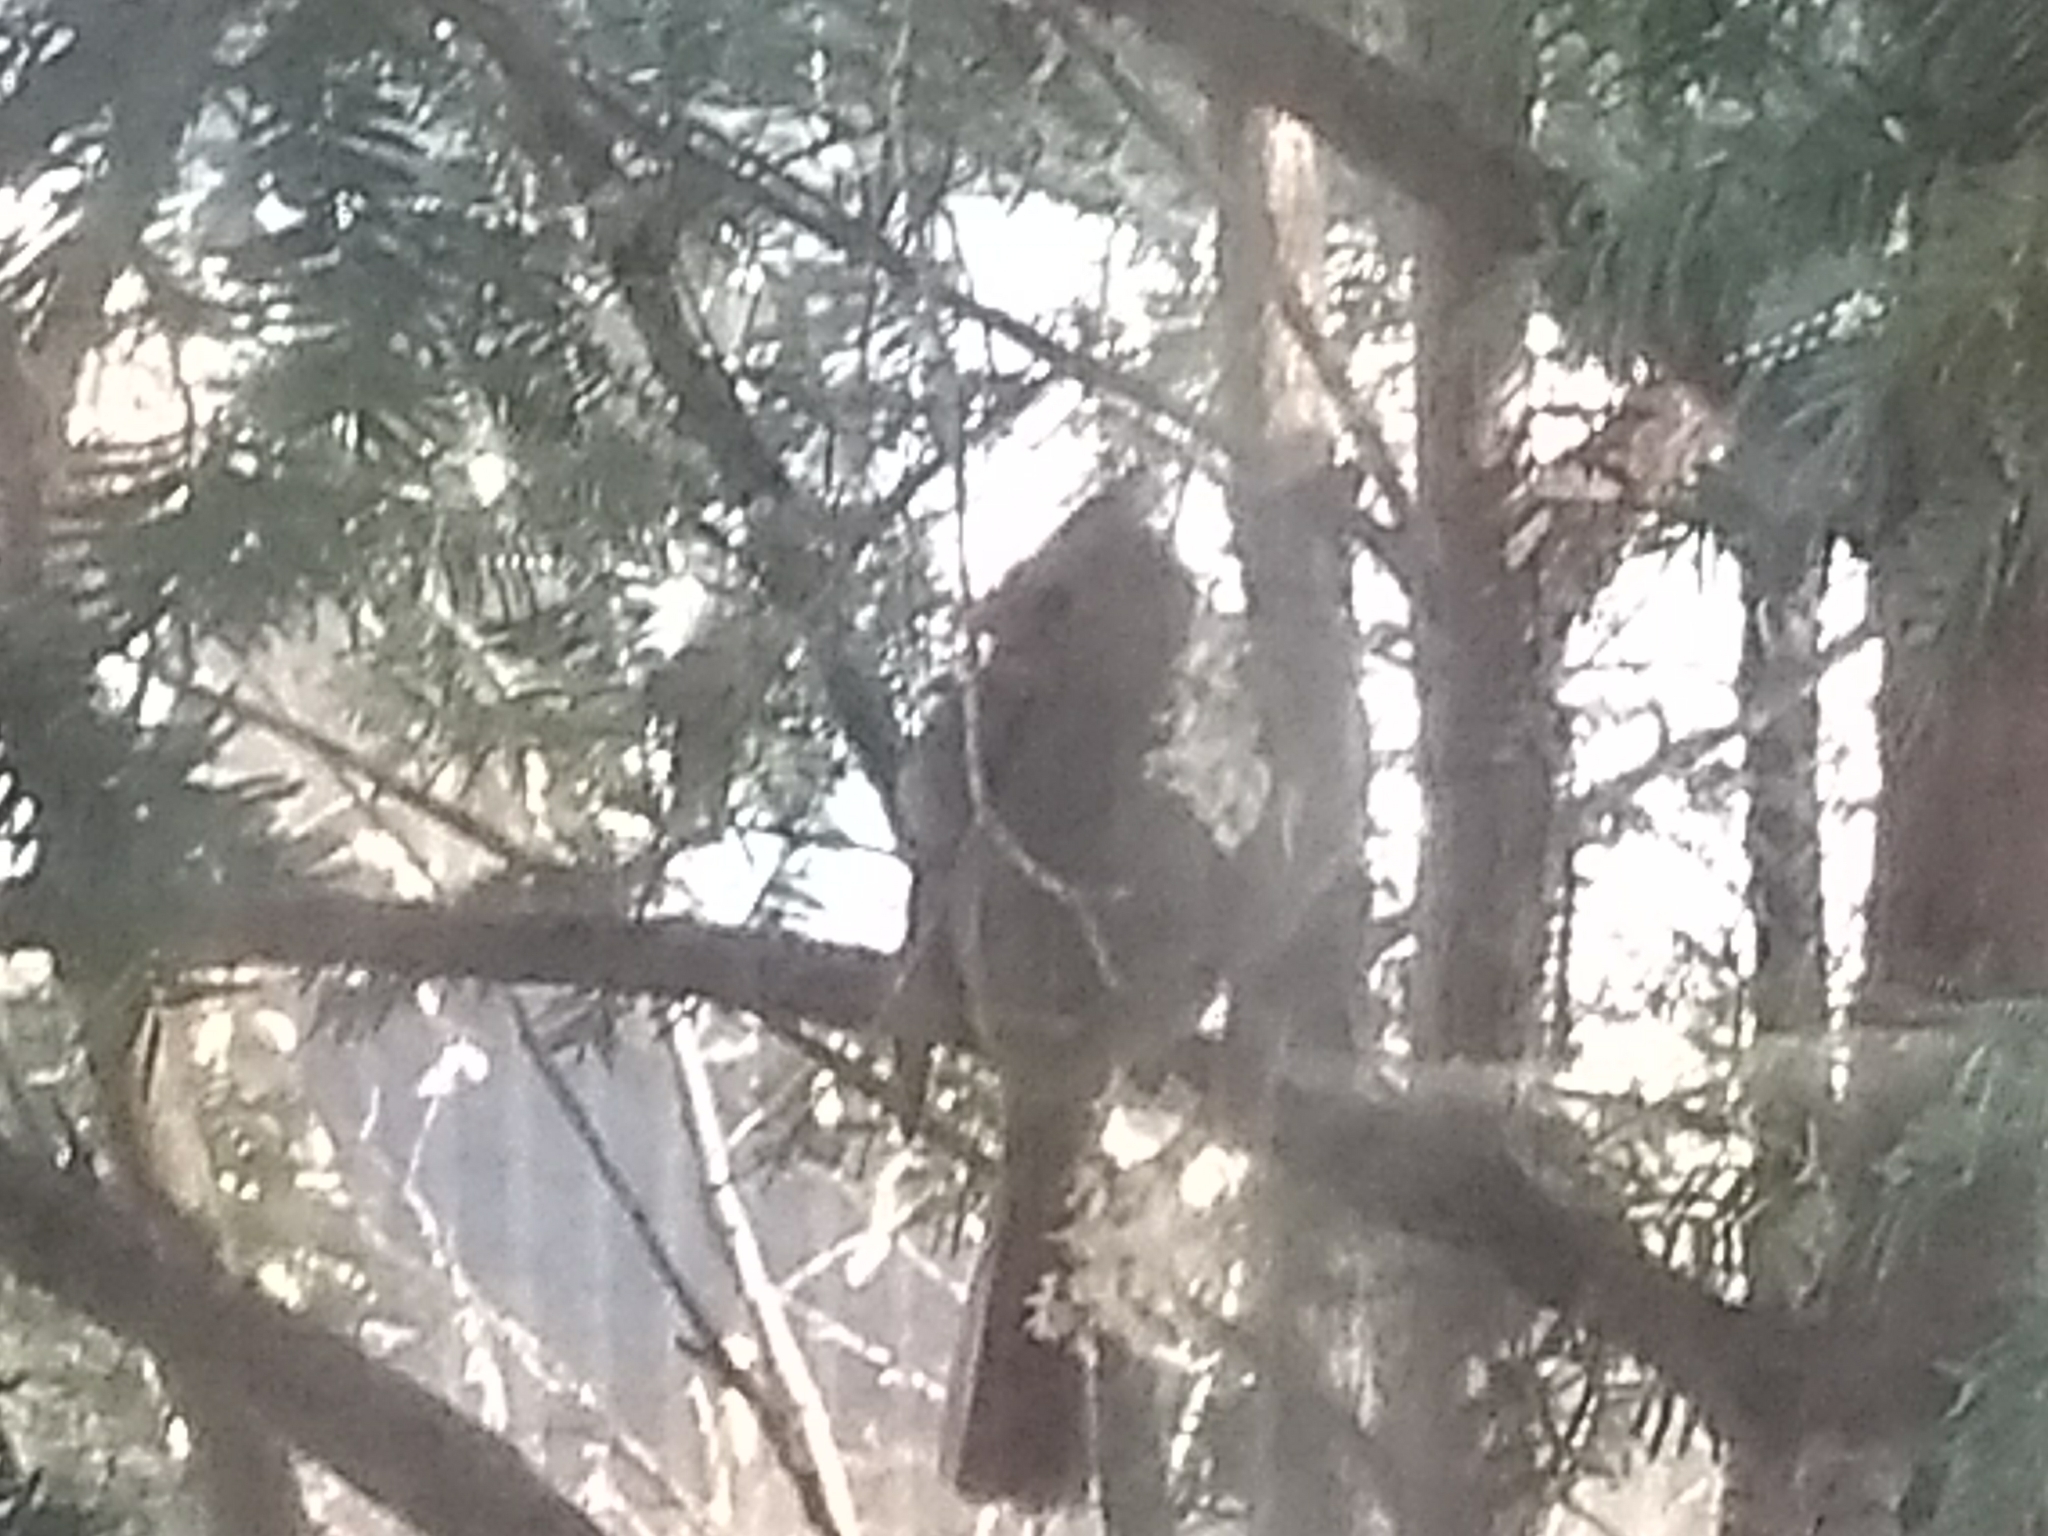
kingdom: Animalia
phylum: Chordata
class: Aves
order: Passeriformes
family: Cardinalidae
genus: Cardinalis
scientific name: Cardinalis cardinalis
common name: Northern cardinal
